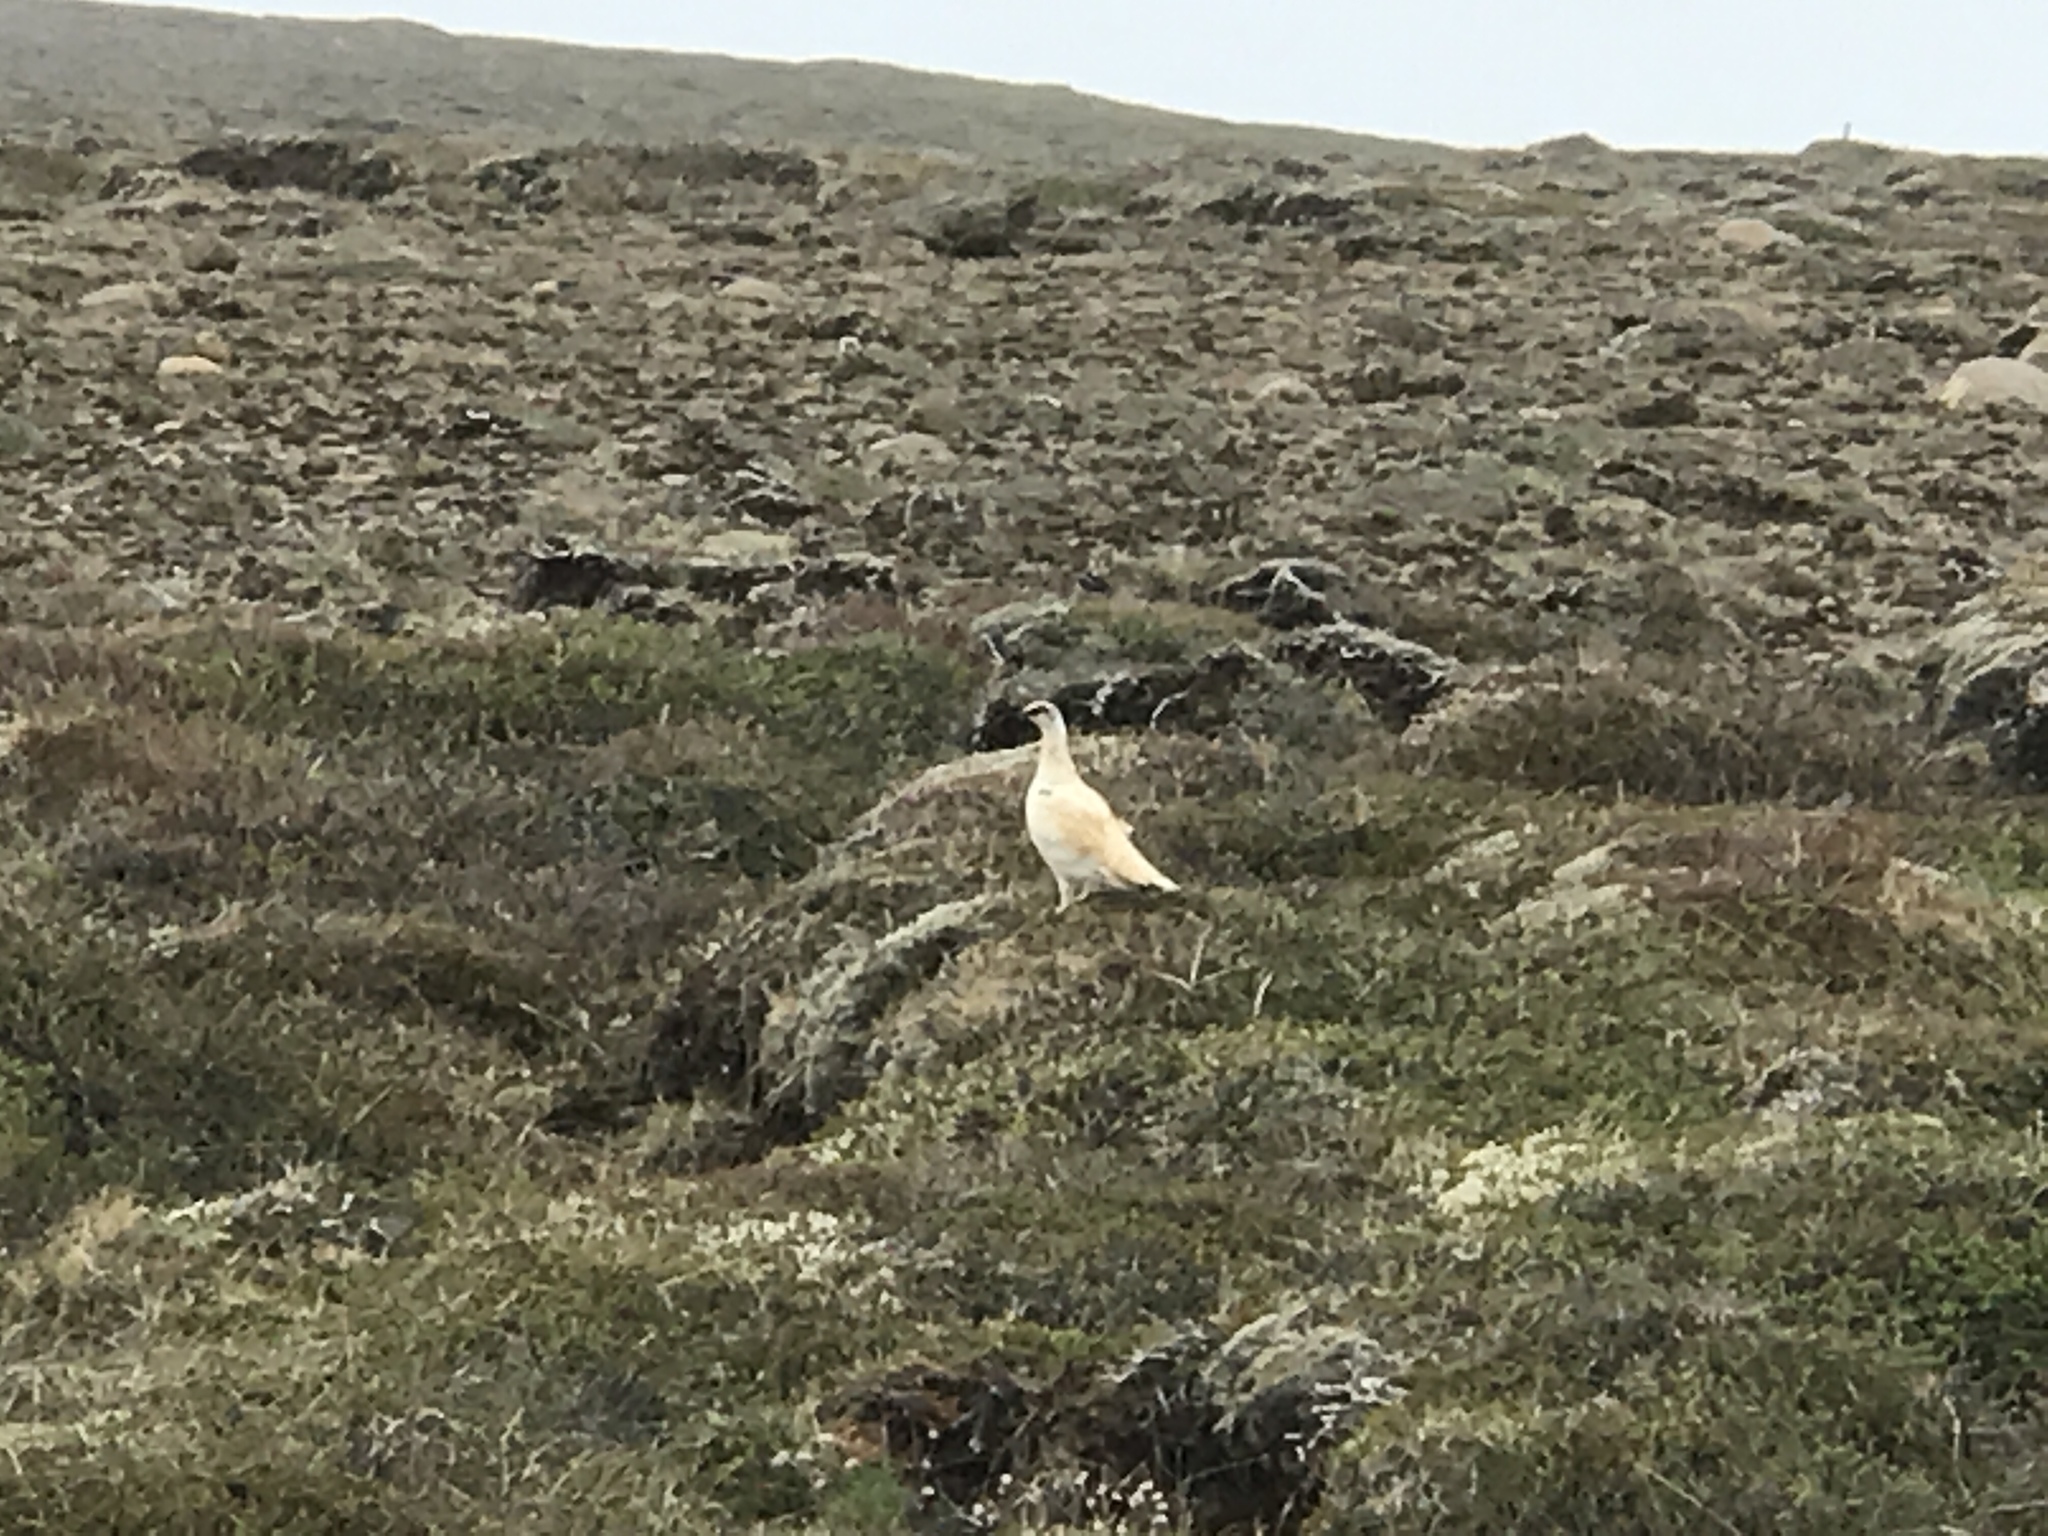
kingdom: Animalia
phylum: Chordata
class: Aves
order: Galliformes
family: Phasianidae
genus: Lagopus
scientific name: Lagopus muta
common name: Rock ptarmigan
